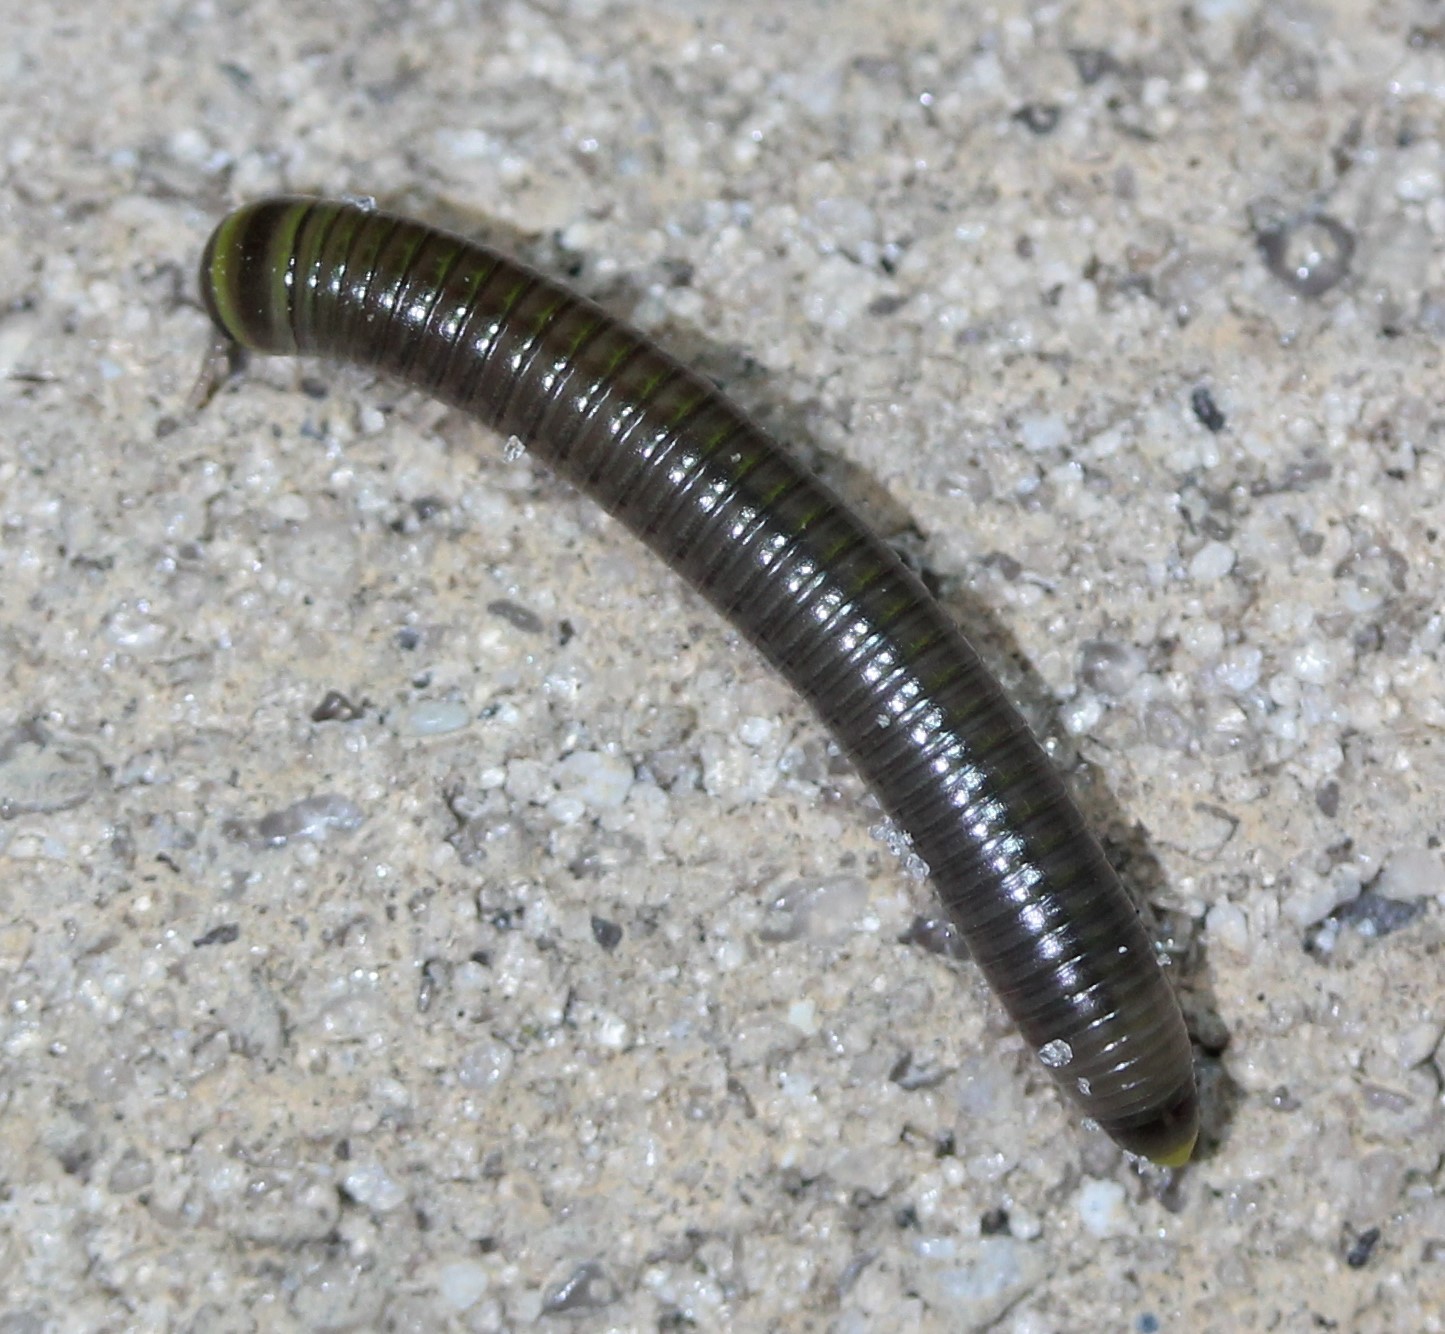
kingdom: Animalia
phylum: Arthropoda
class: Diplopoda
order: Spirobolida
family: Rhinocricidae
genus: Anadenobolus
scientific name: Anadenobolus monilicornis
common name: Caribbean millipede
